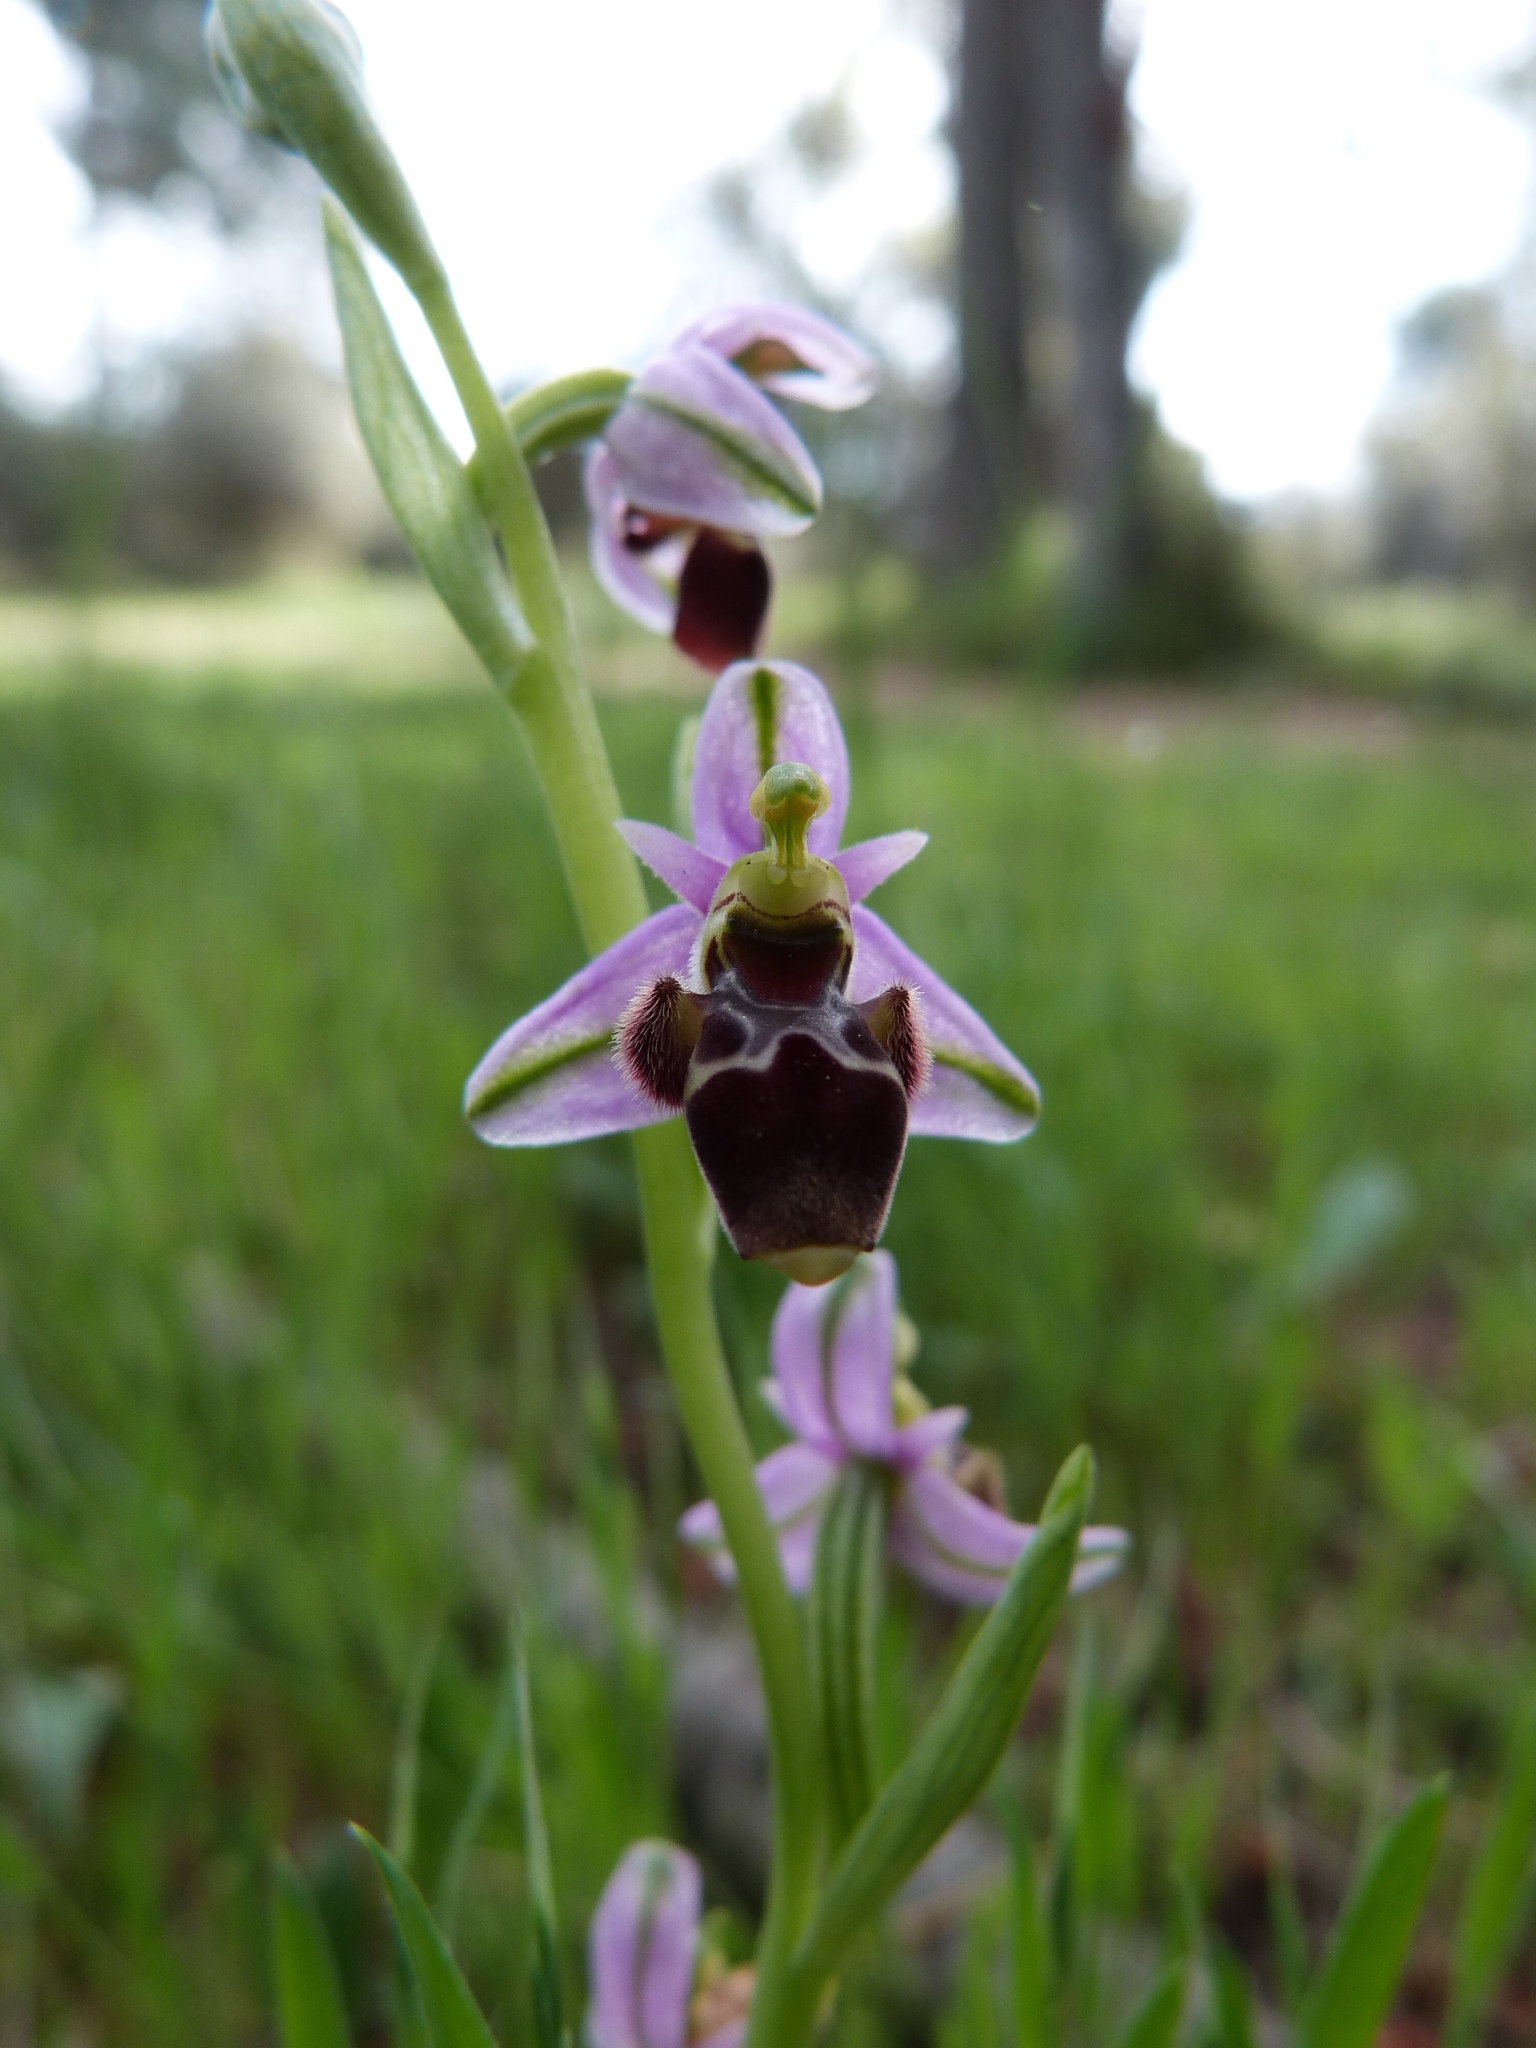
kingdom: Plantae
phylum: Tracheophyta
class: Liliopsida
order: Asparagales
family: Orchidaceae
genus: Ophrys
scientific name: Ophrys scolopax
